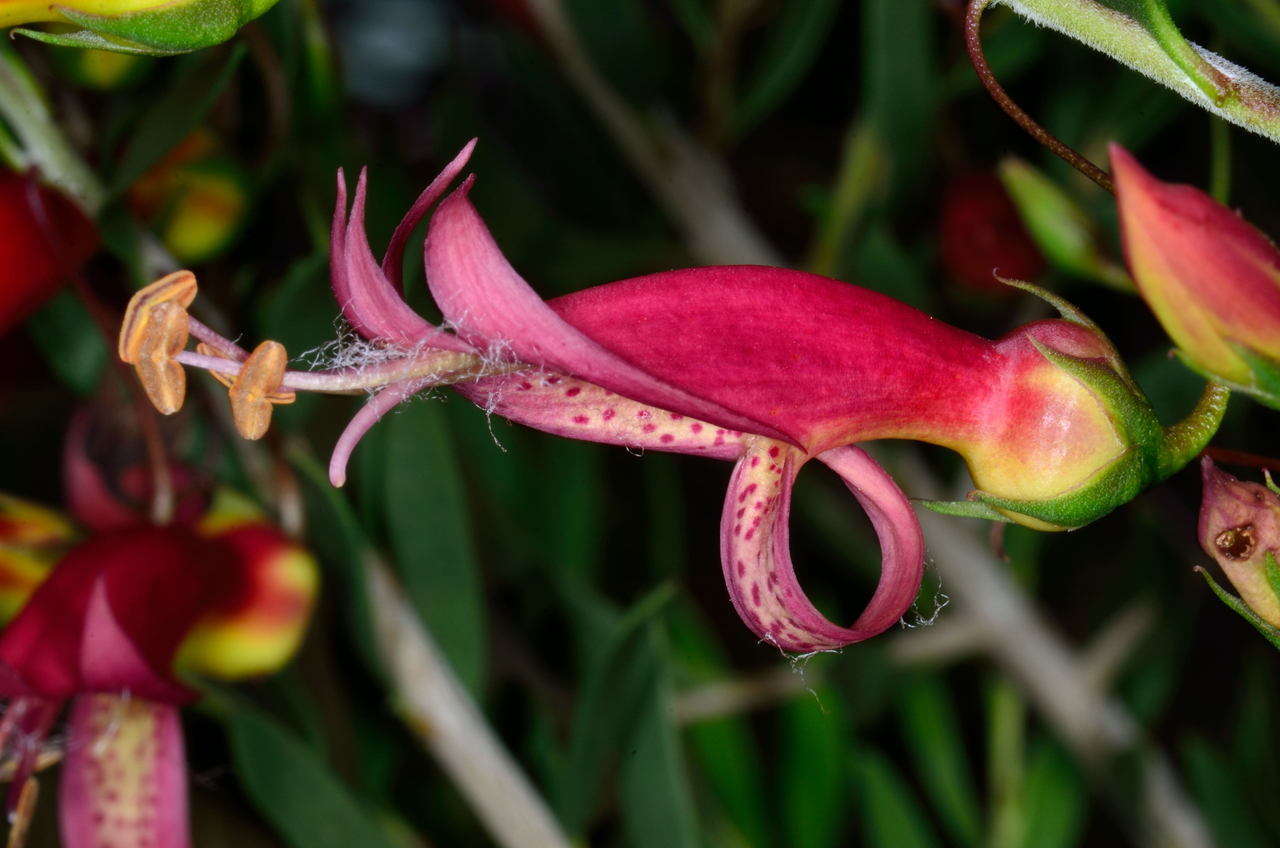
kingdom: Plantae
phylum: Tracheophyta
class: Magnoliopsida
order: Lamiales
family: Scrophulariaceae
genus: Eremophila
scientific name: Eremophila maculata
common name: Fuchsiabush
